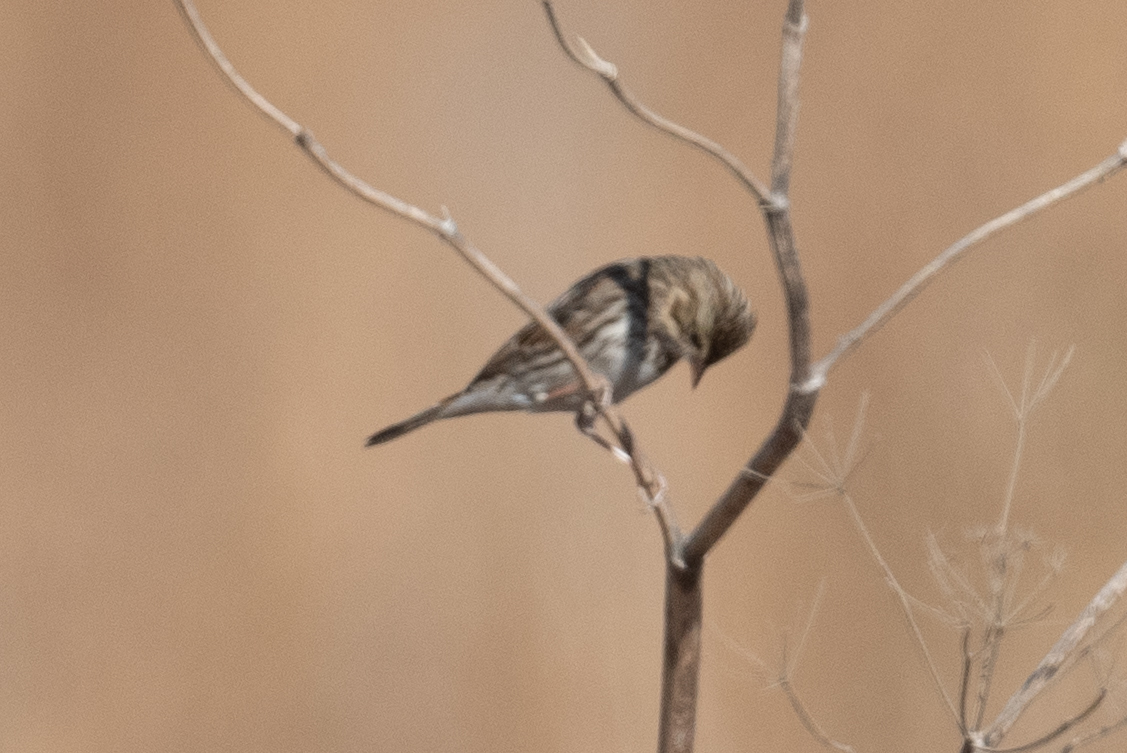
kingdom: Animalia
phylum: Chordata
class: Aves
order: Passeriformes
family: Passerellidae
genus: Passerculus
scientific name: Passerculus sandwichensis
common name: Savannah sparrow
